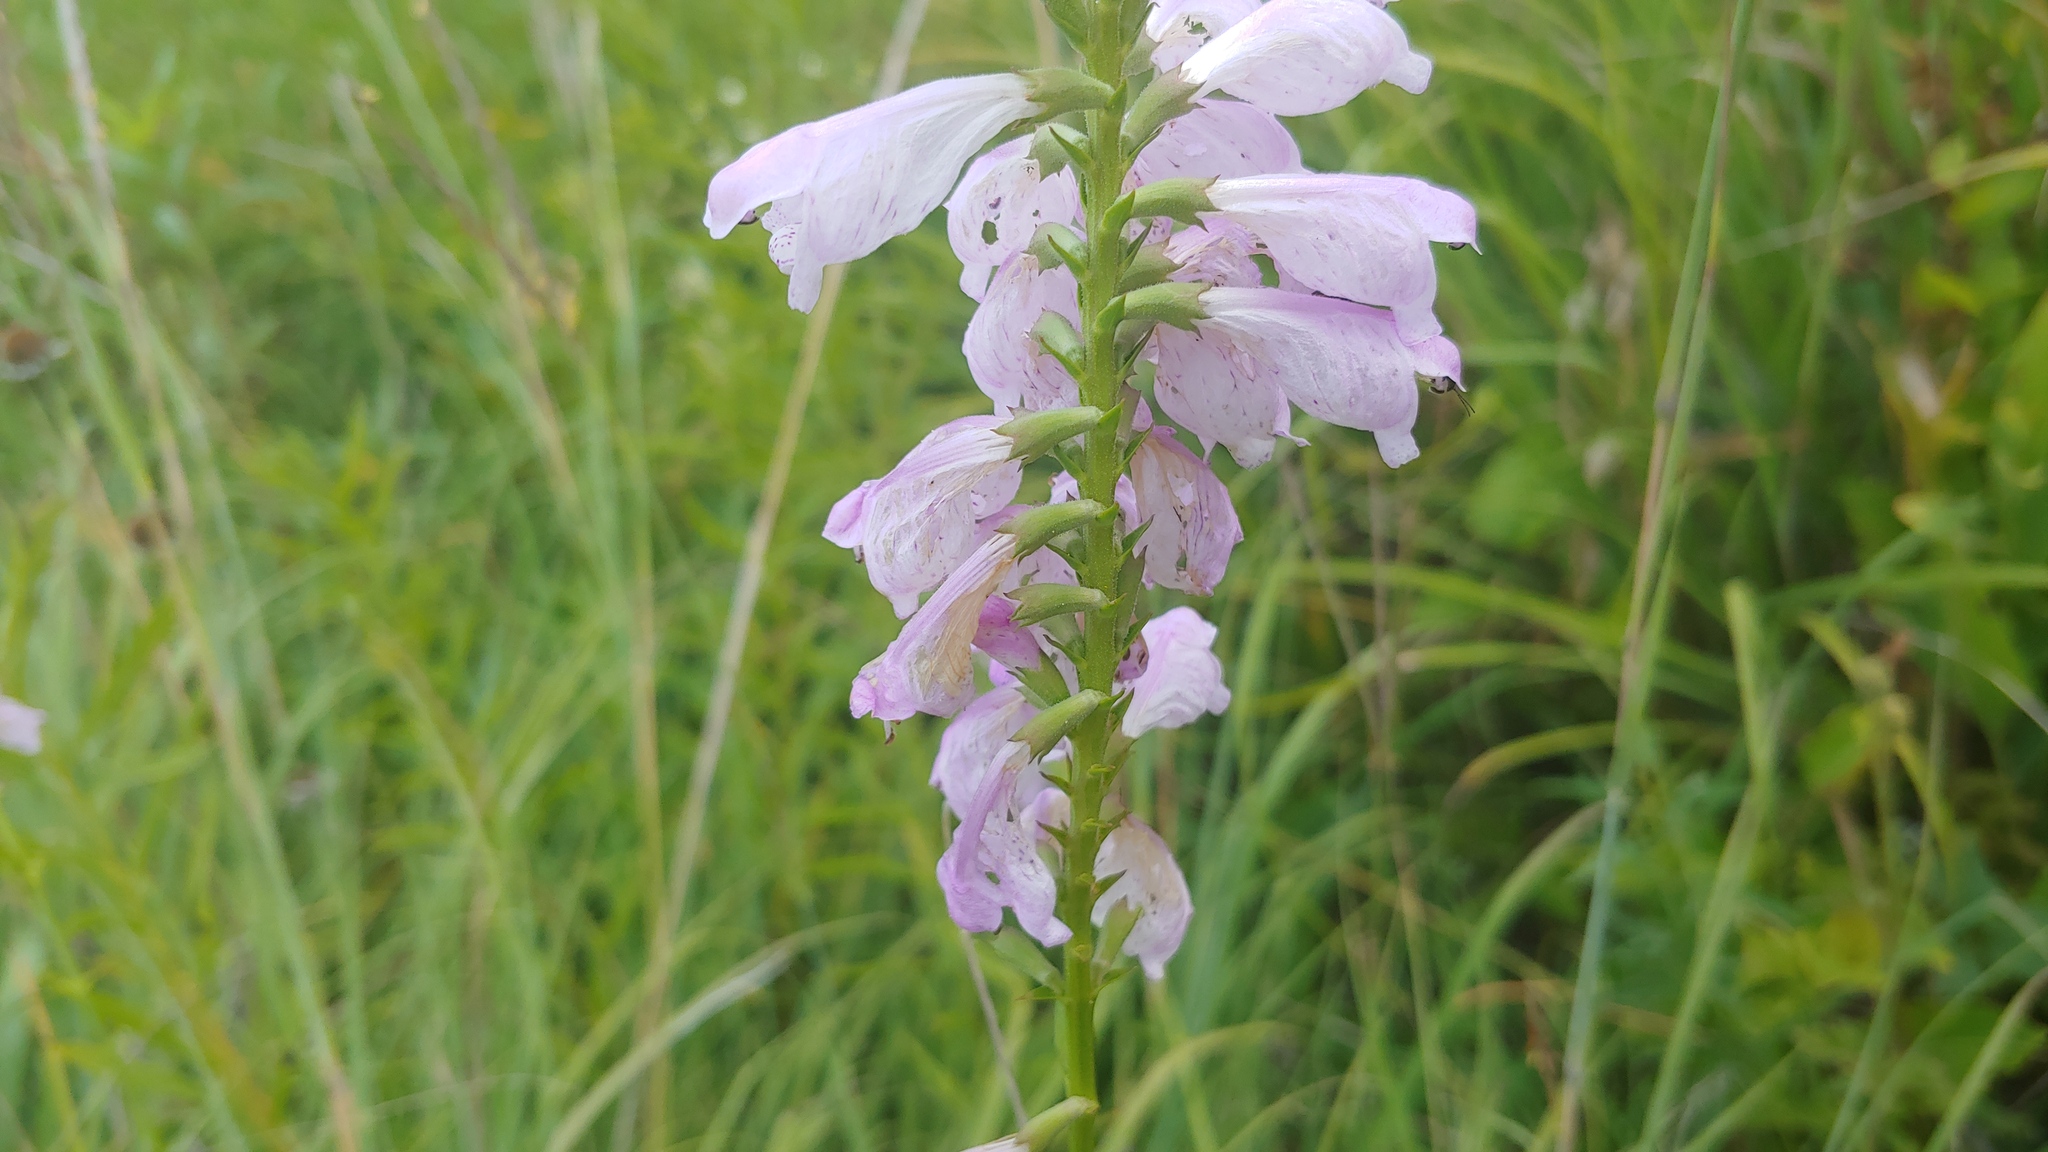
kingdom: Plantae
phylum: Tracheophyta
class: Magnoliopsida
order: Lamiales
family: Lamiaceae
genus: Physostegia
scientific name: Physostegia virginiana
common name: Obedient-plant
